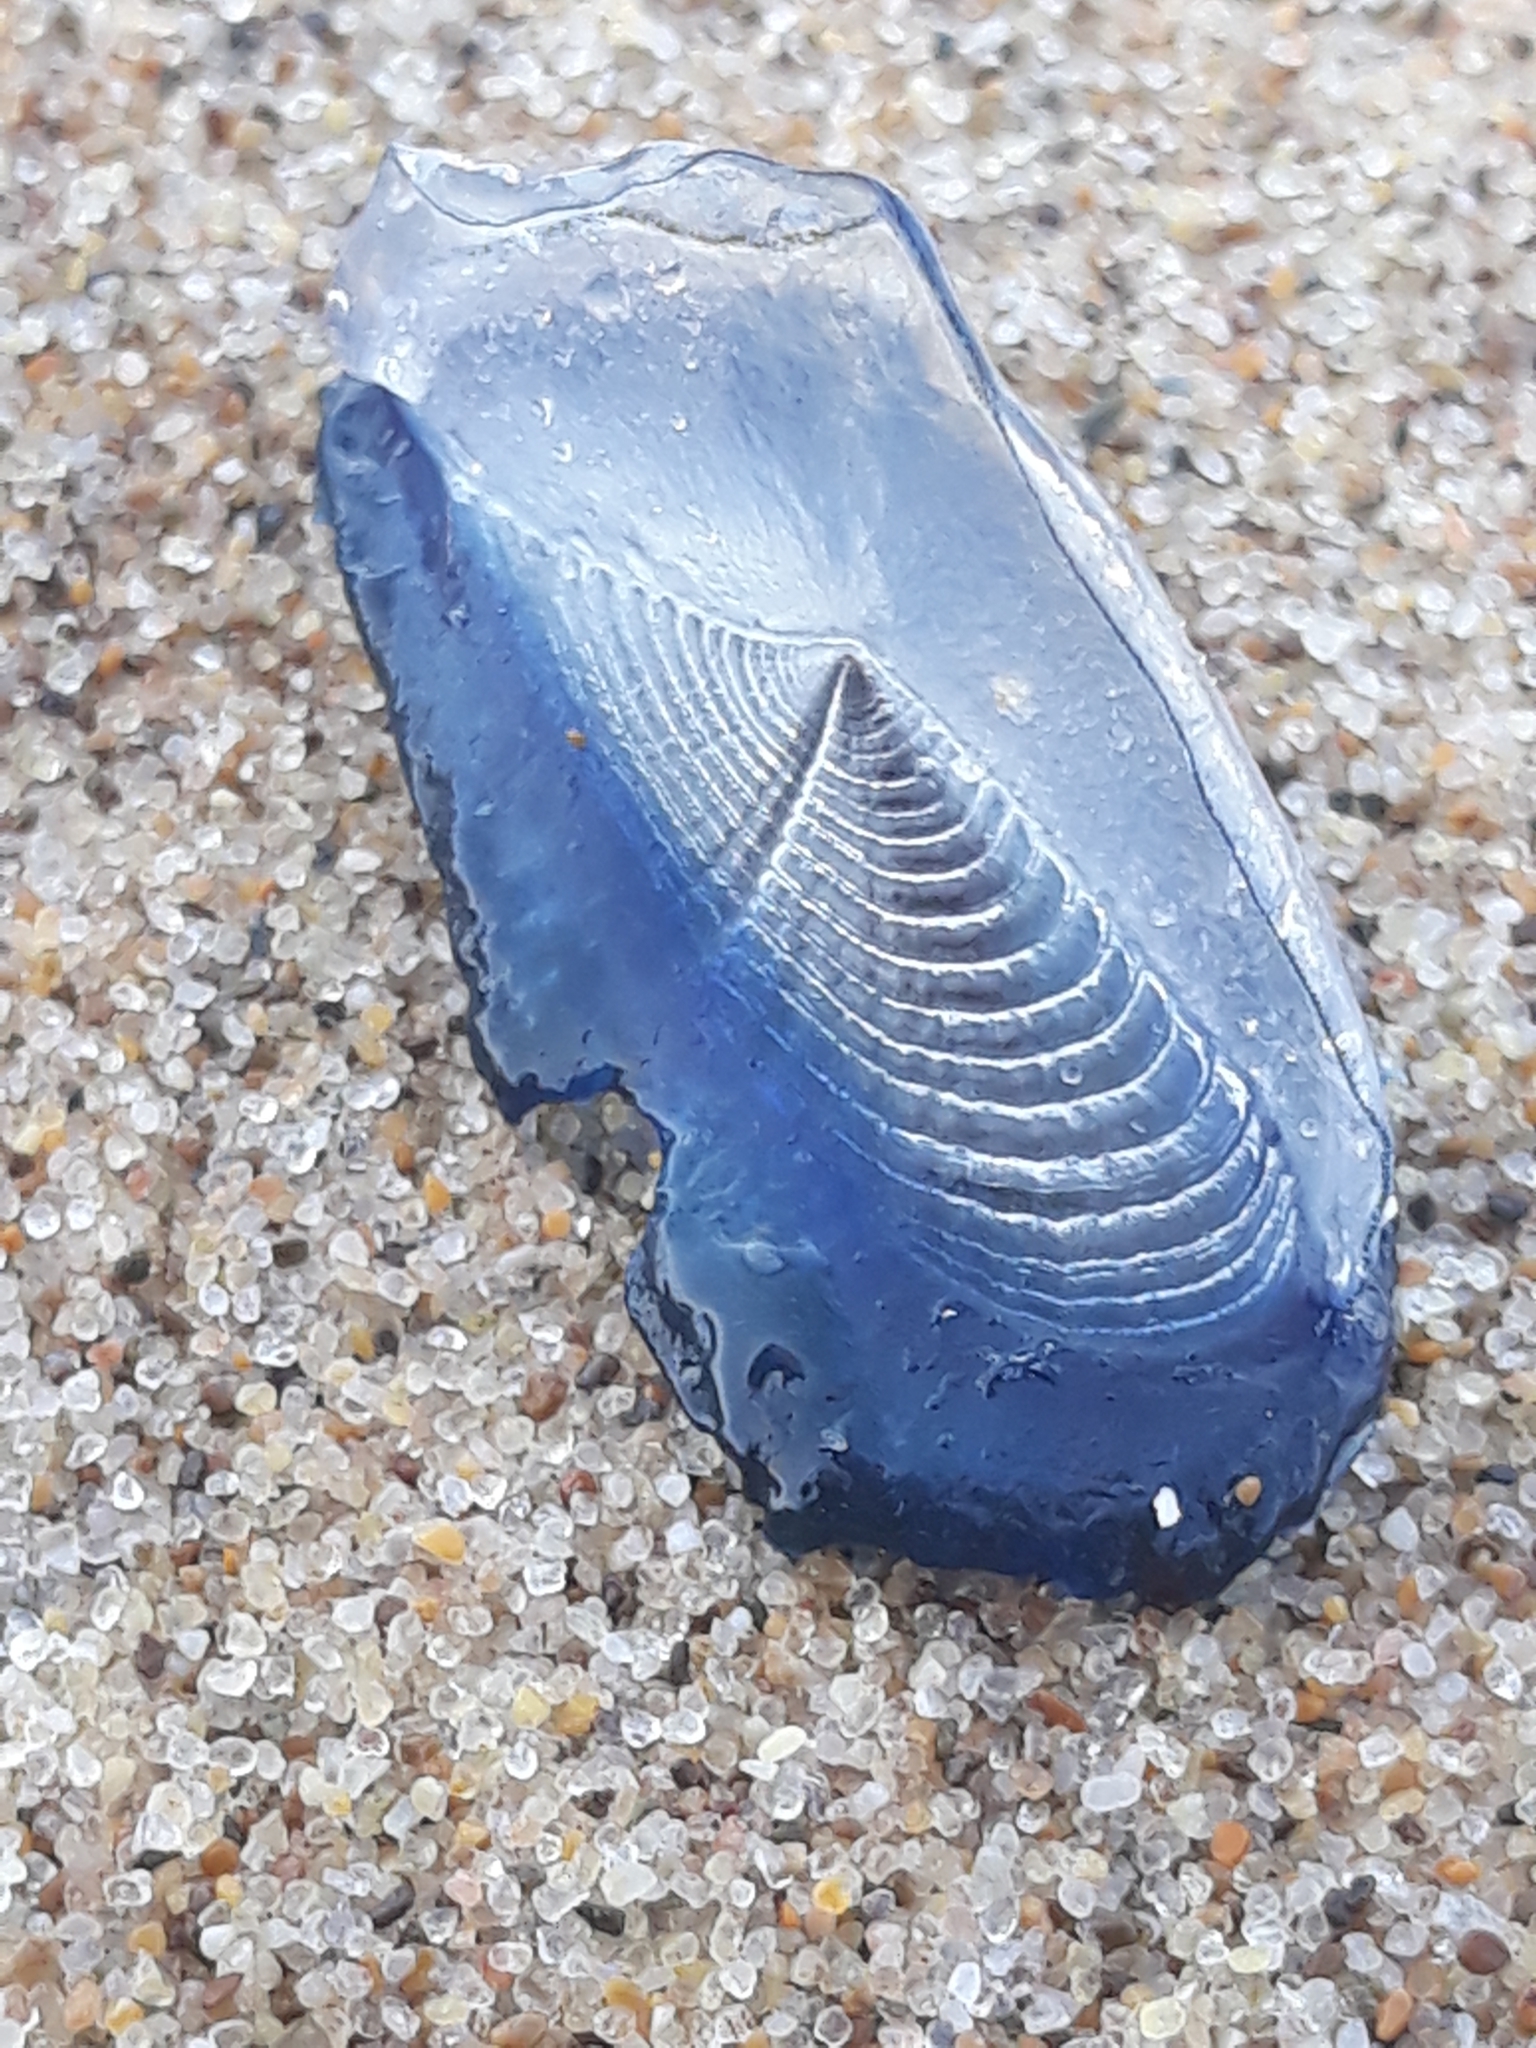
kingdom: Animalia
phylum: Cnidaria
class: Hydrozoa
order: Anthoathecata
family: Porpitidae
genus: Velella
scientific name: Velella velella
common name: By-the-wind-sailor
